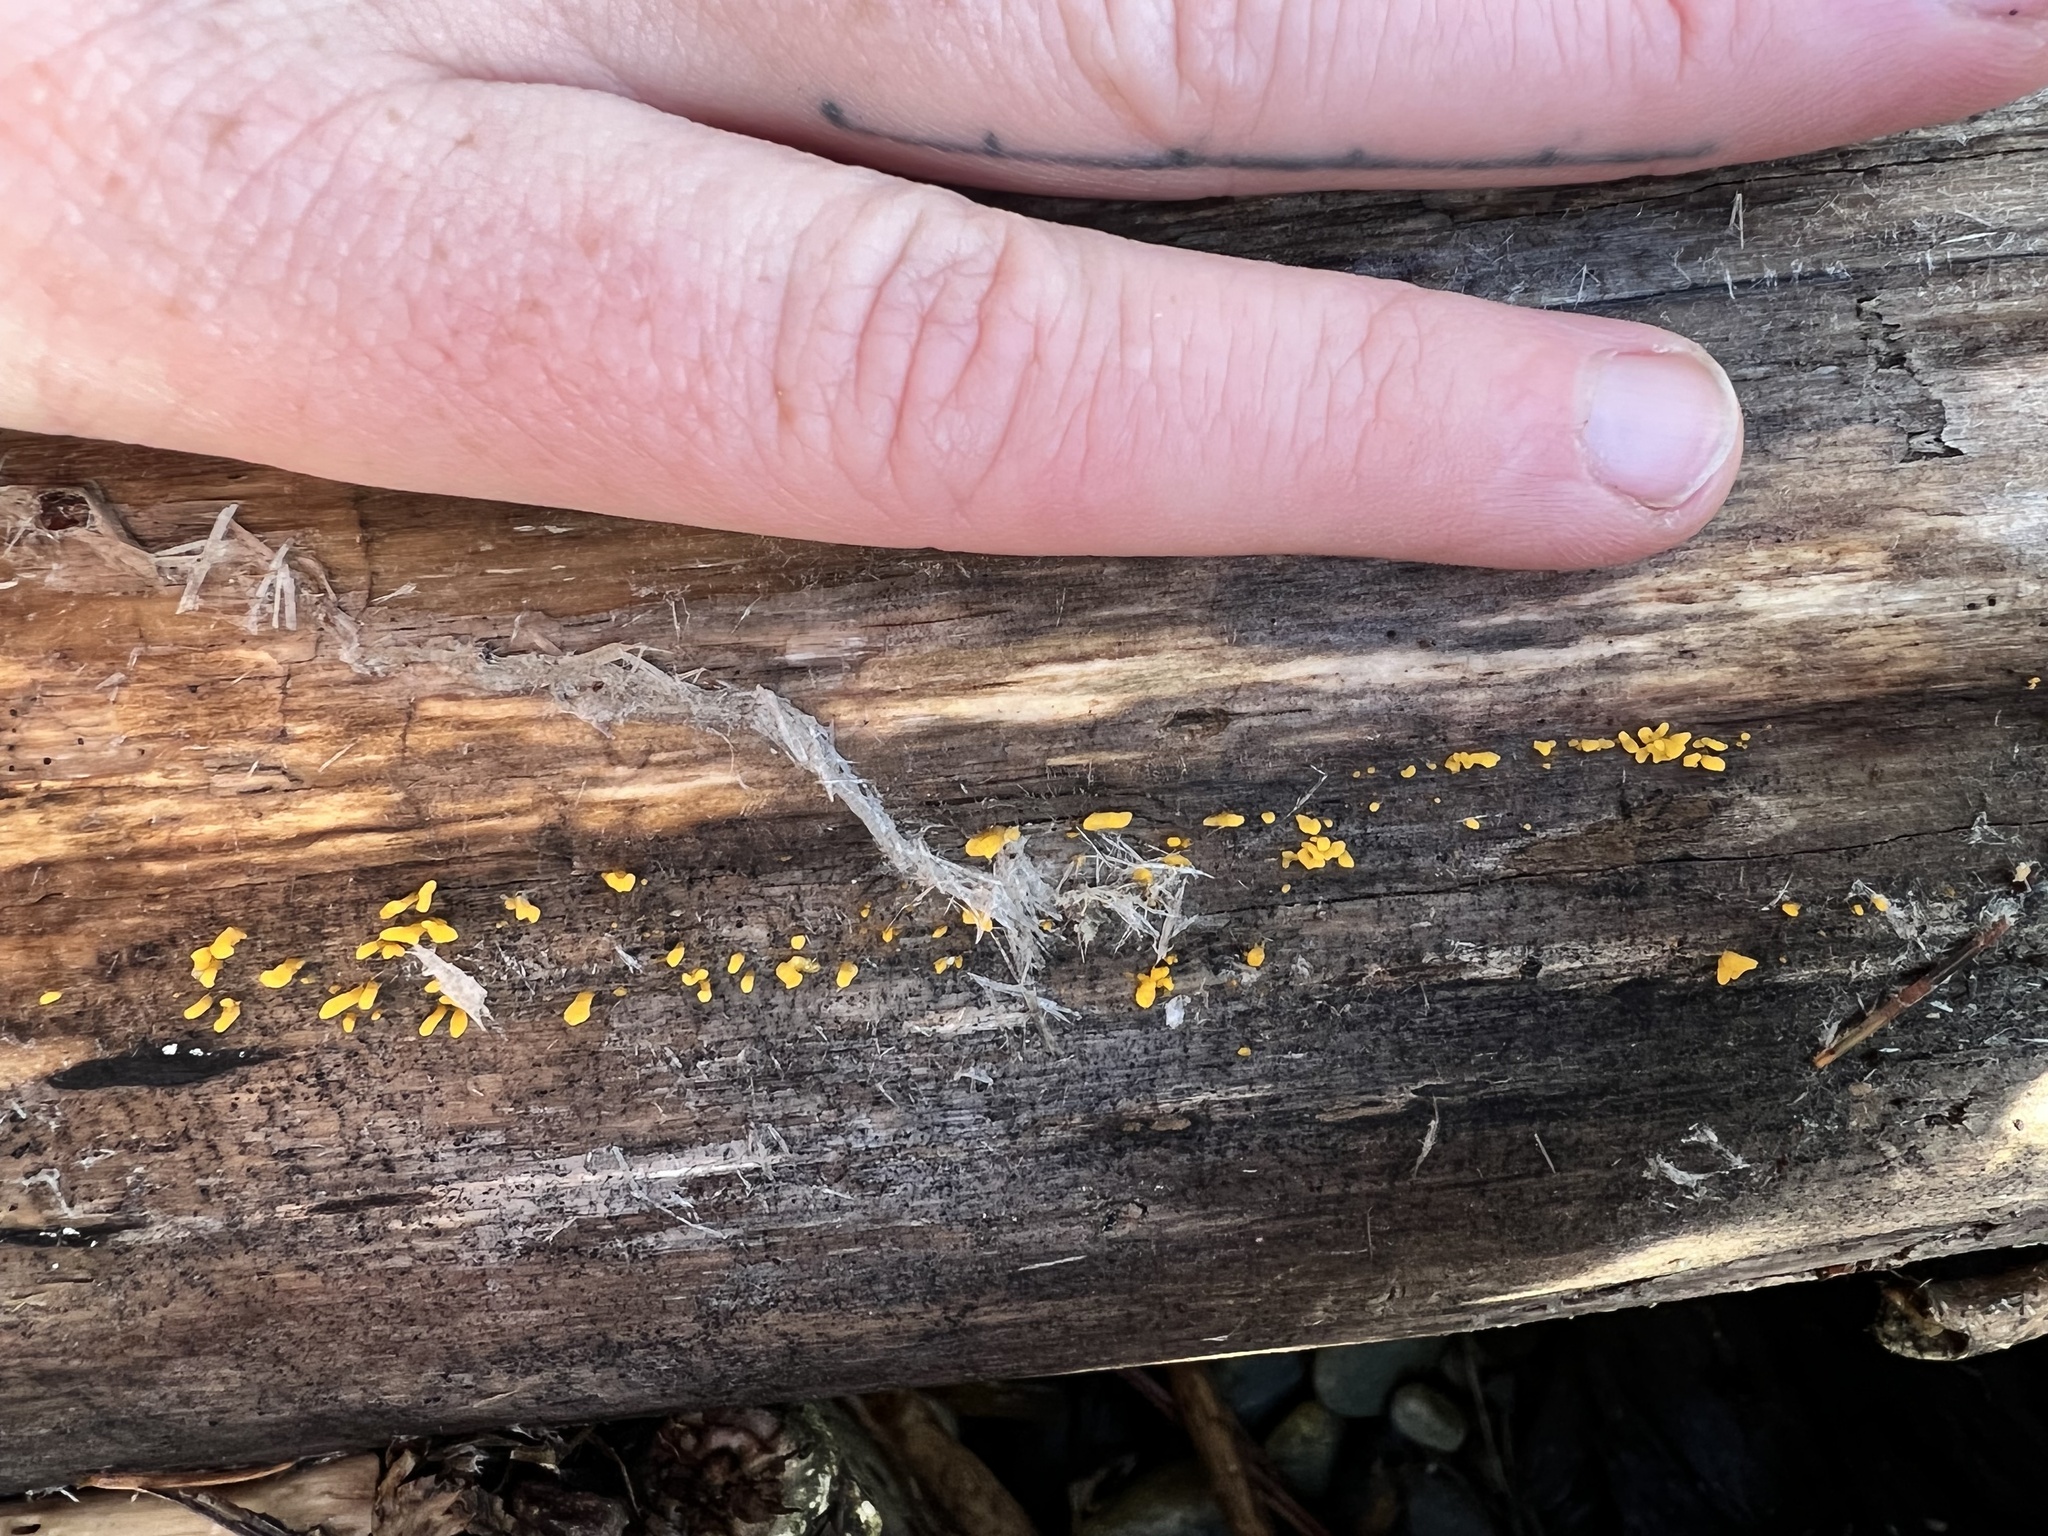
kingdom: Fungi
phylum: Basidiomycota
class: Dacrymycetes
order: Dacrymycetales
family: Dacrymycetaceae
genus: Calocera
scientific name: Calocera cornea
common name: Small stagshorn
